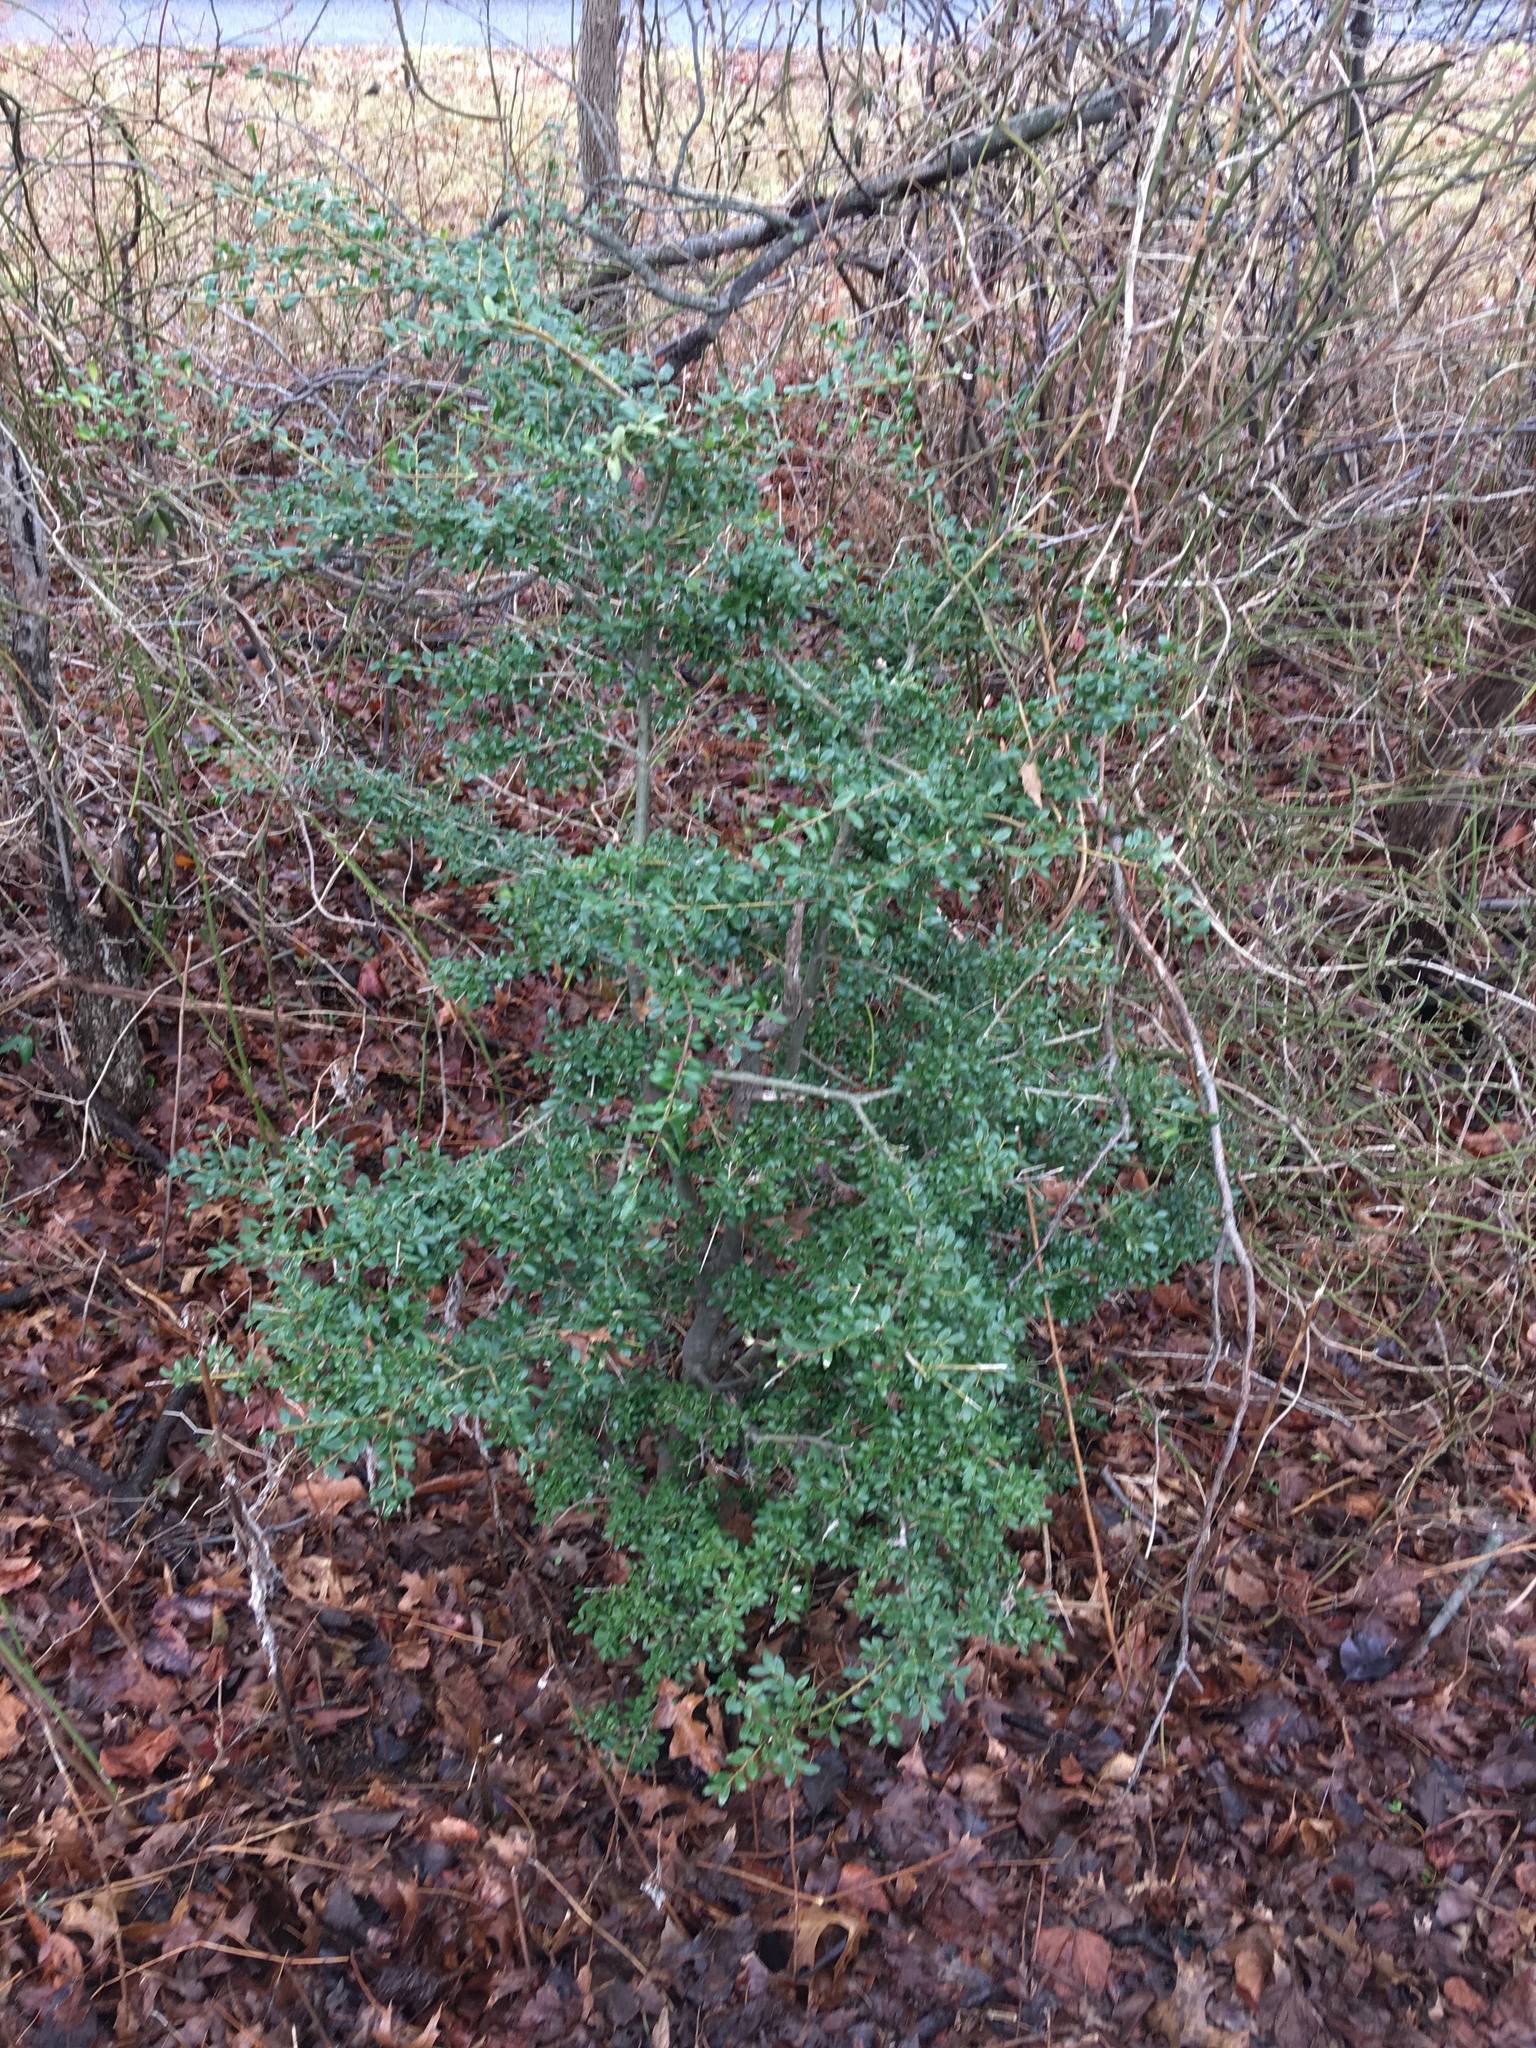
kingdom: Plantae
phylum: Tracheophyta
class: Magnoliopsida
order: Aquifoliales
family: Aquifoliaceae
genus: Ilex
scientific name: Ilex crenata
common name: Japanese holly
